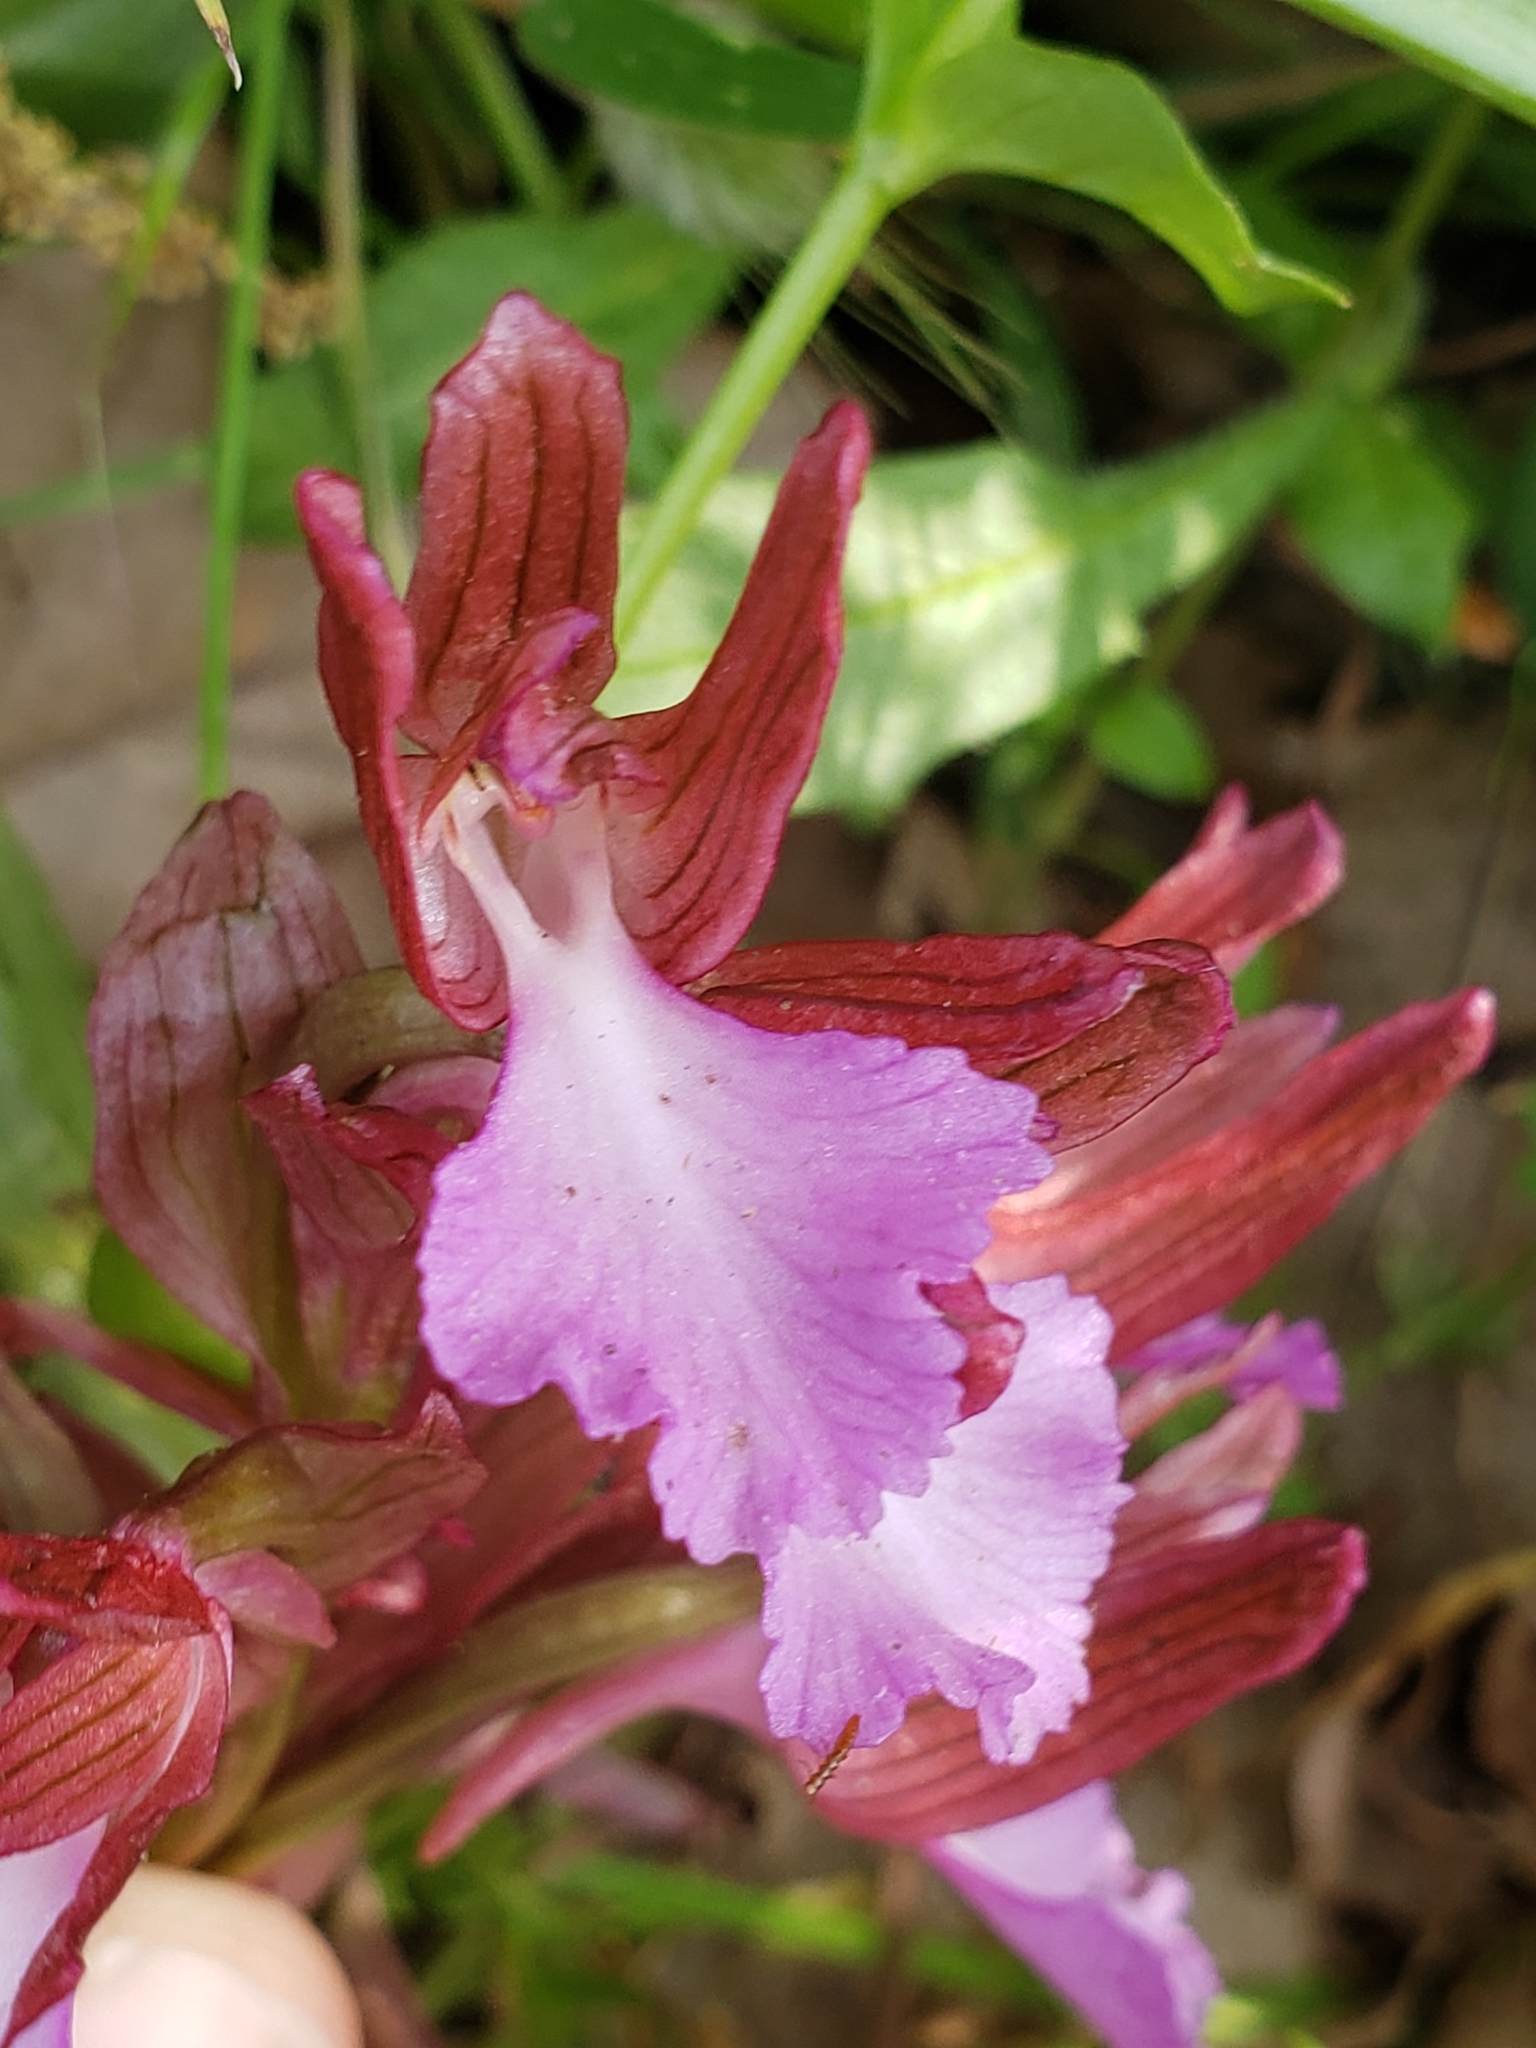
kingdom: Plantae
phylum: Tracheophyta
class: Liliopsida
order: Asparagales
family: Orchidaceae
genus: Anacamptis
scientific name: Anacamptis papilionacea
